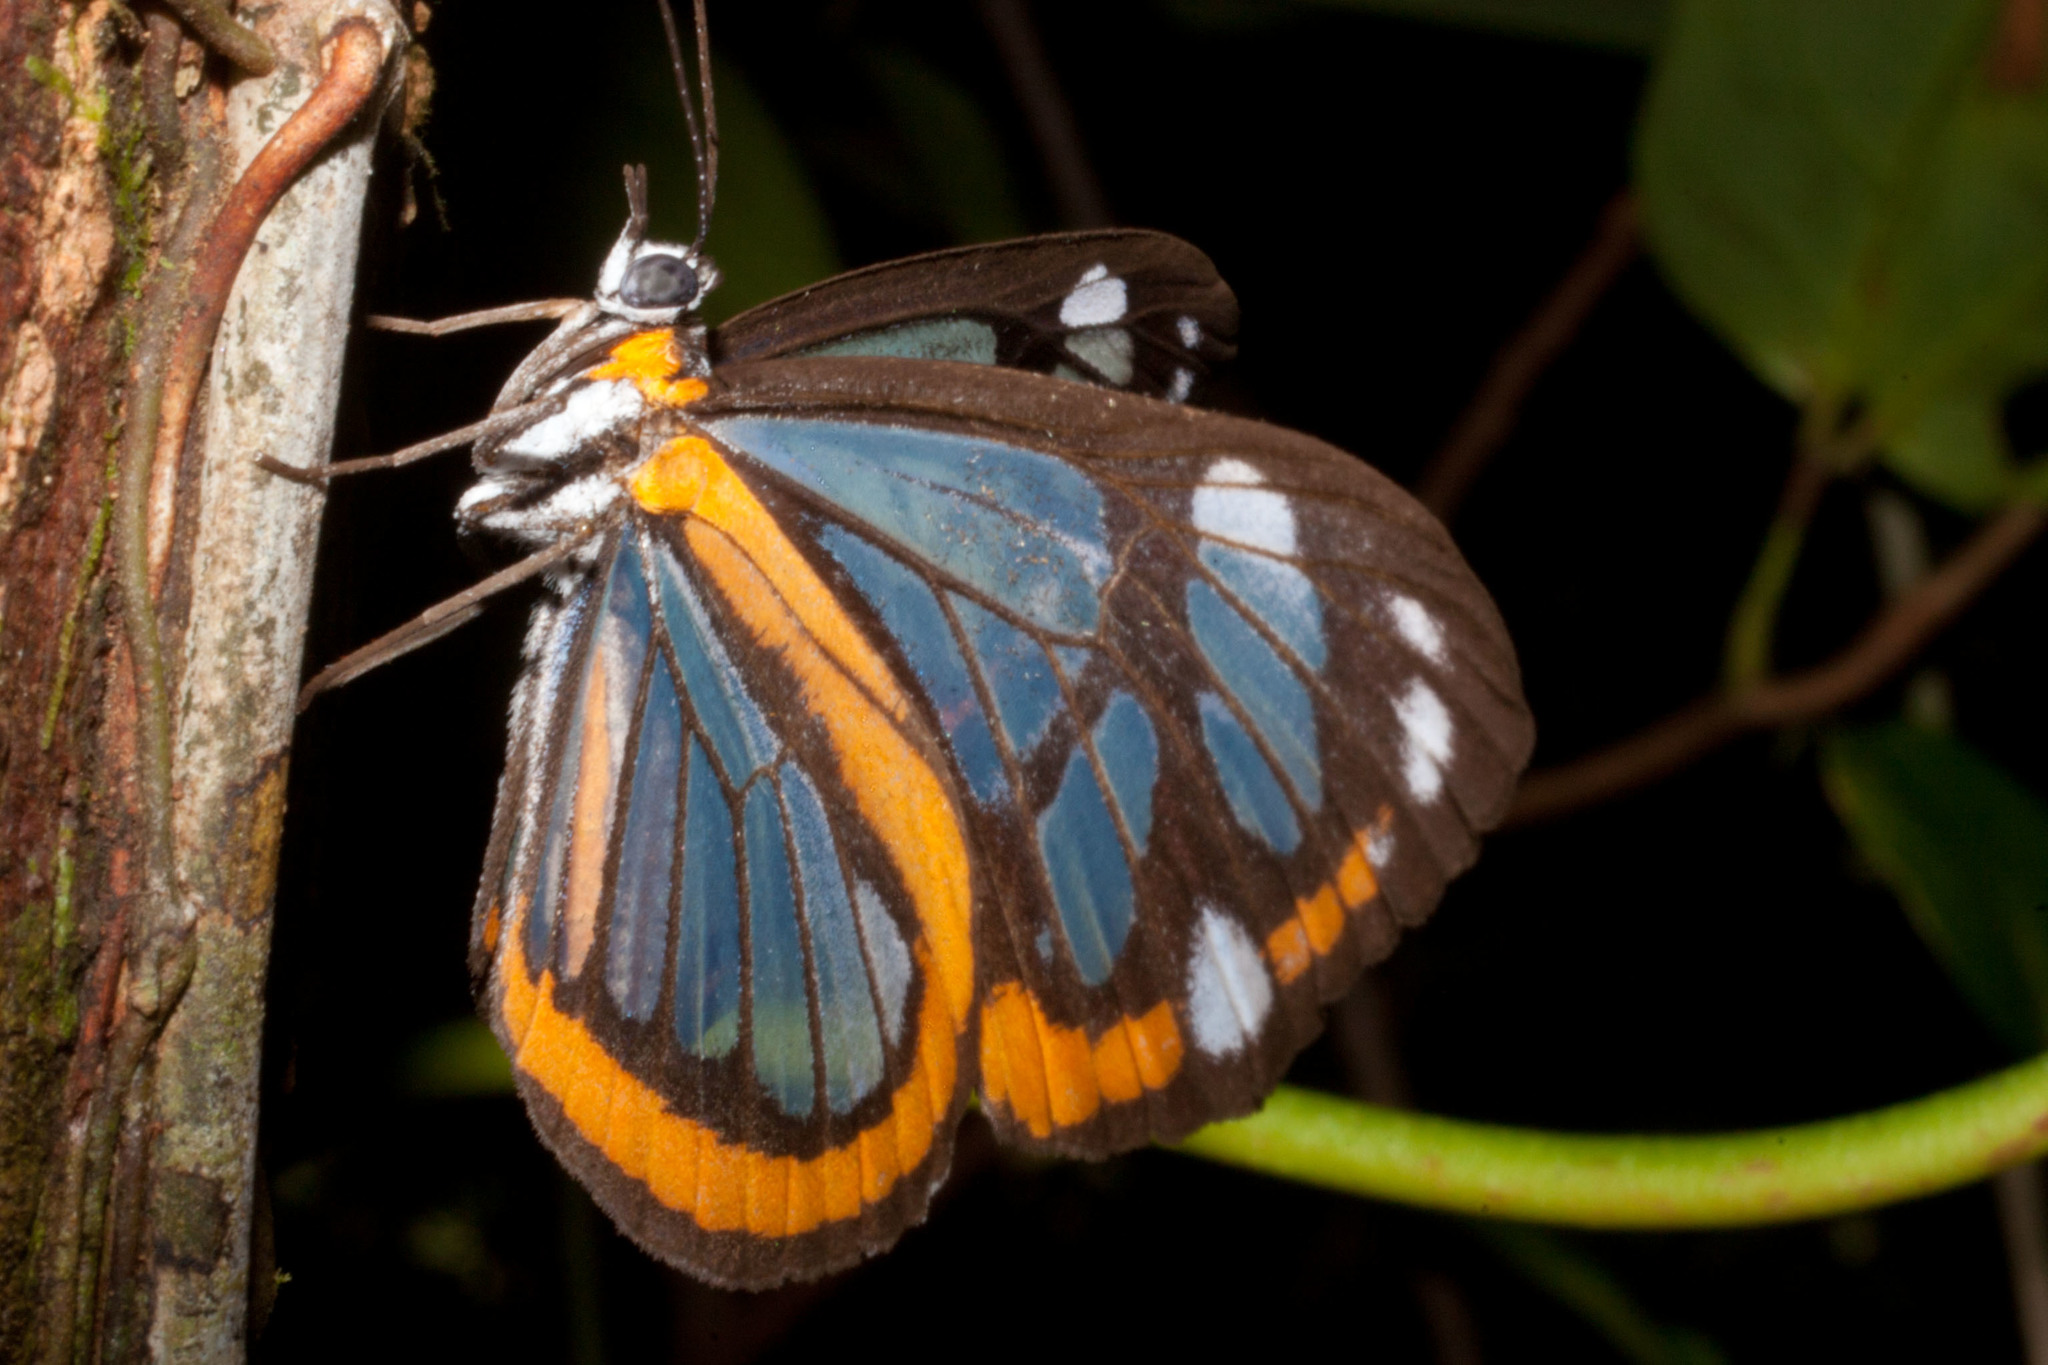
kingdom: Animalia
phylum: Arthropoda
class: Insecta
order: Lepidoptera
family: Riodinidae
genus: Stalachtis
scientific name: Stalachtis zephyritis
